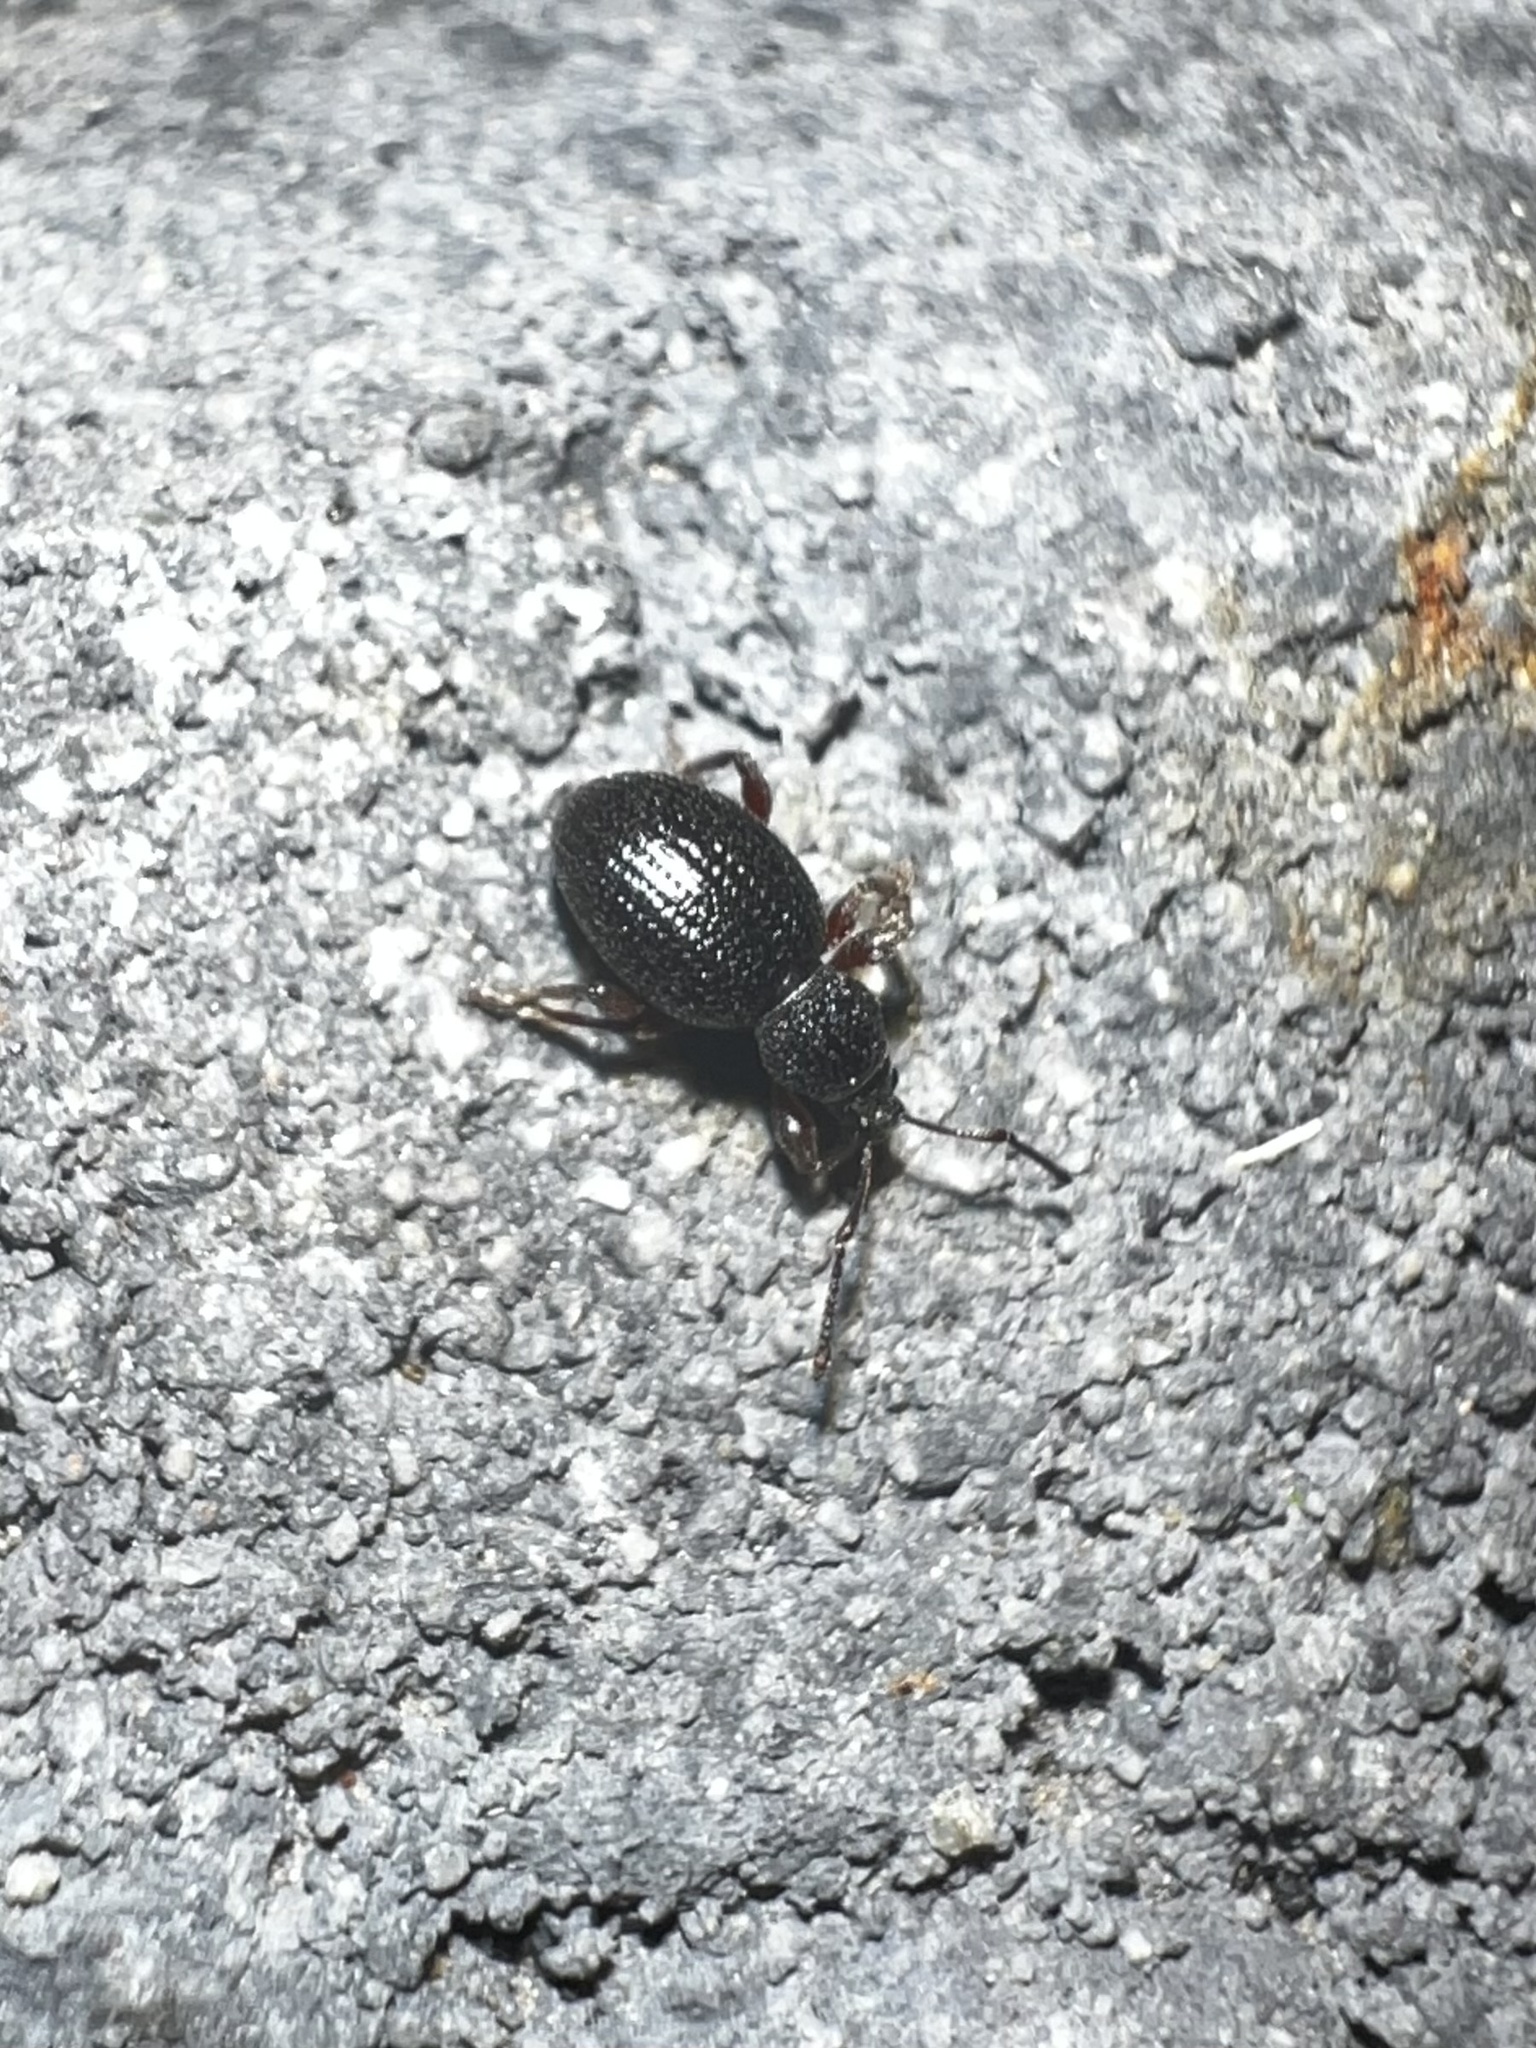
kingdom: Animalia
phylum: Arthropoda
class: Insecta
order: Coleoptera
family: Curculionidae
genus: Otiorhynchus
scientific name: Otiorhynchus ovatus
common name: Strawberry root weevil
